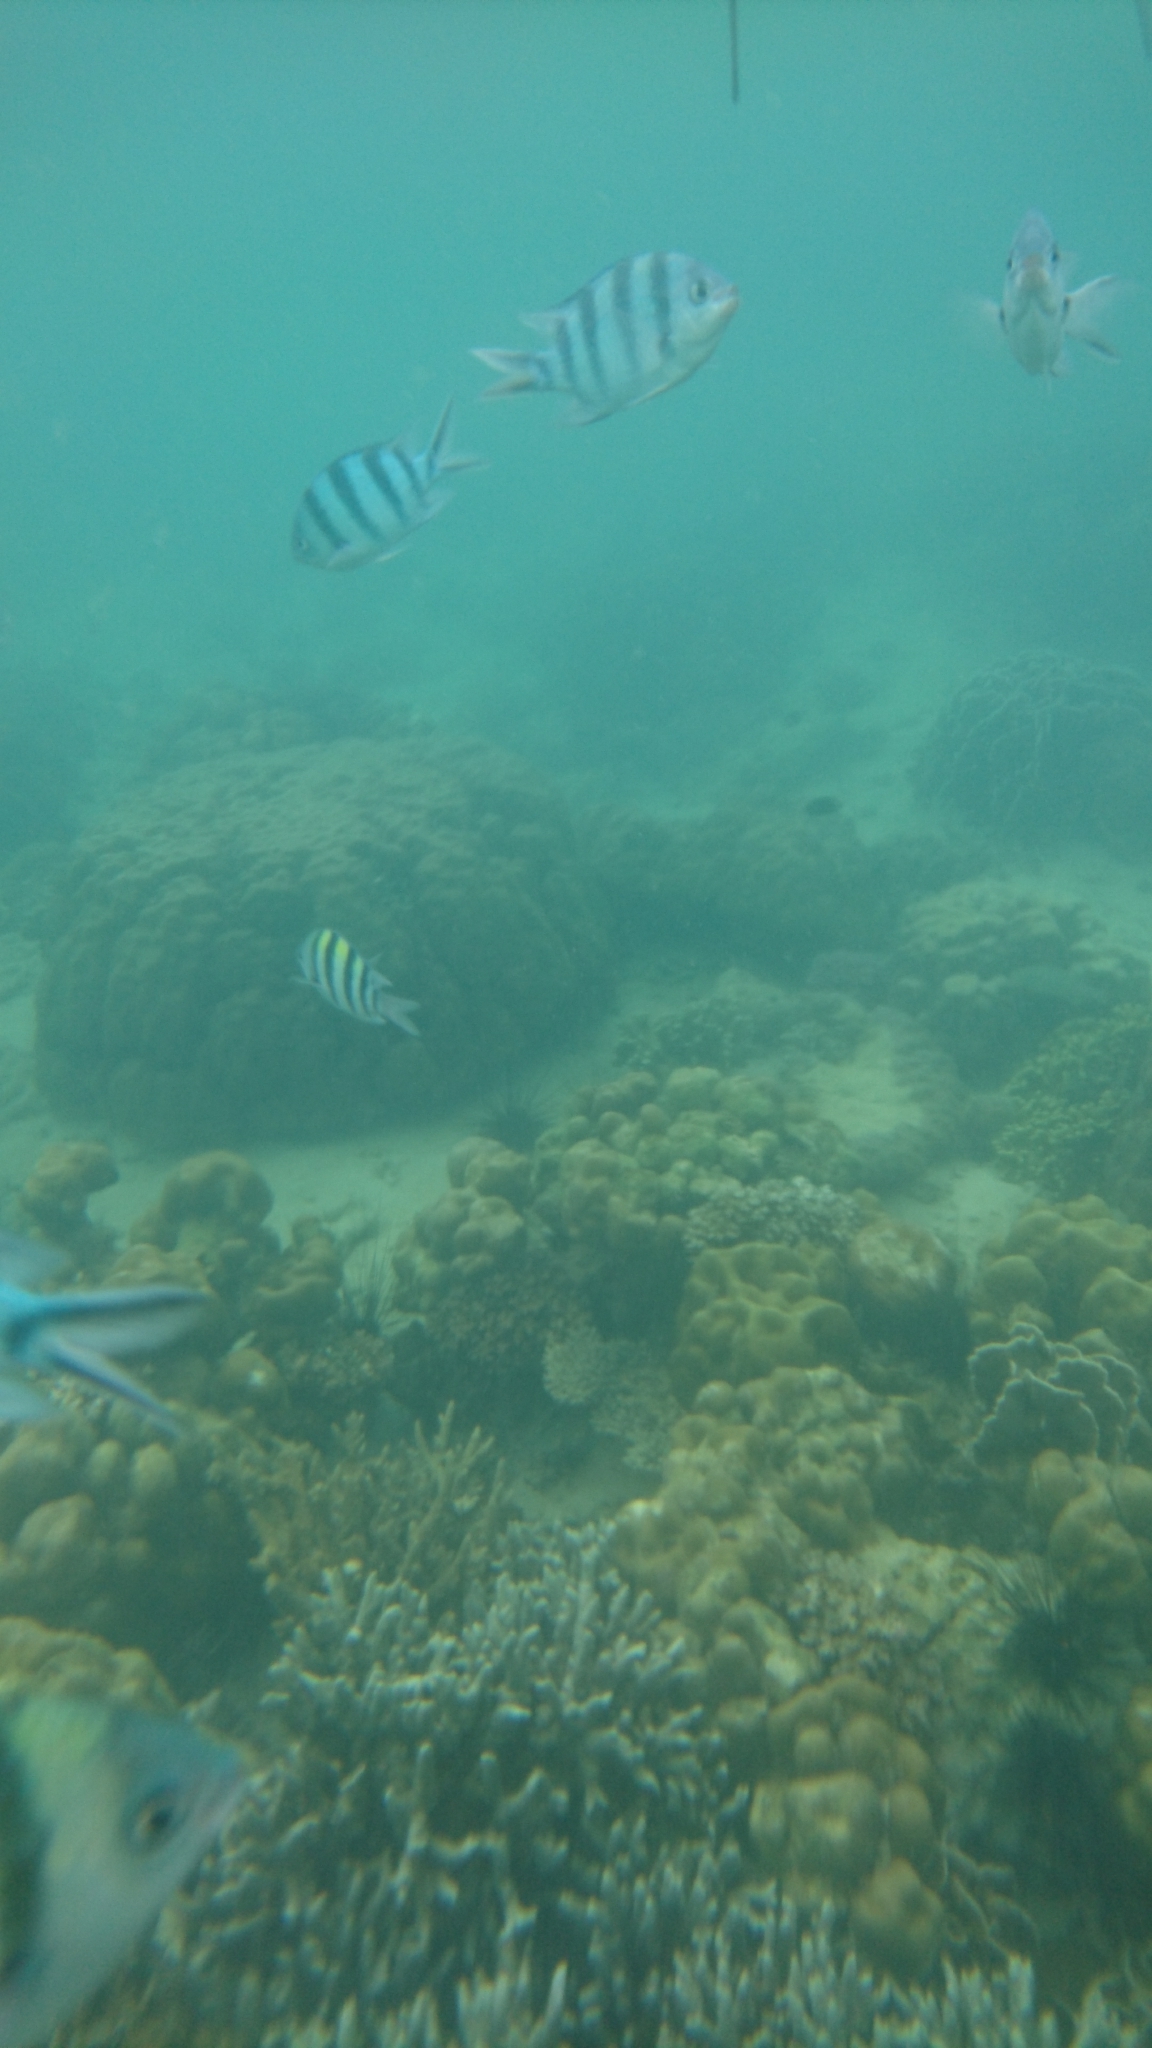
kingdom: Animalia
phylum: Chordata
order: Perciformes
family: Pomacentridae
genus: Abudefduf
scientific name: Abudefduf sexfasciatus
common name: Scissortail sergeant
